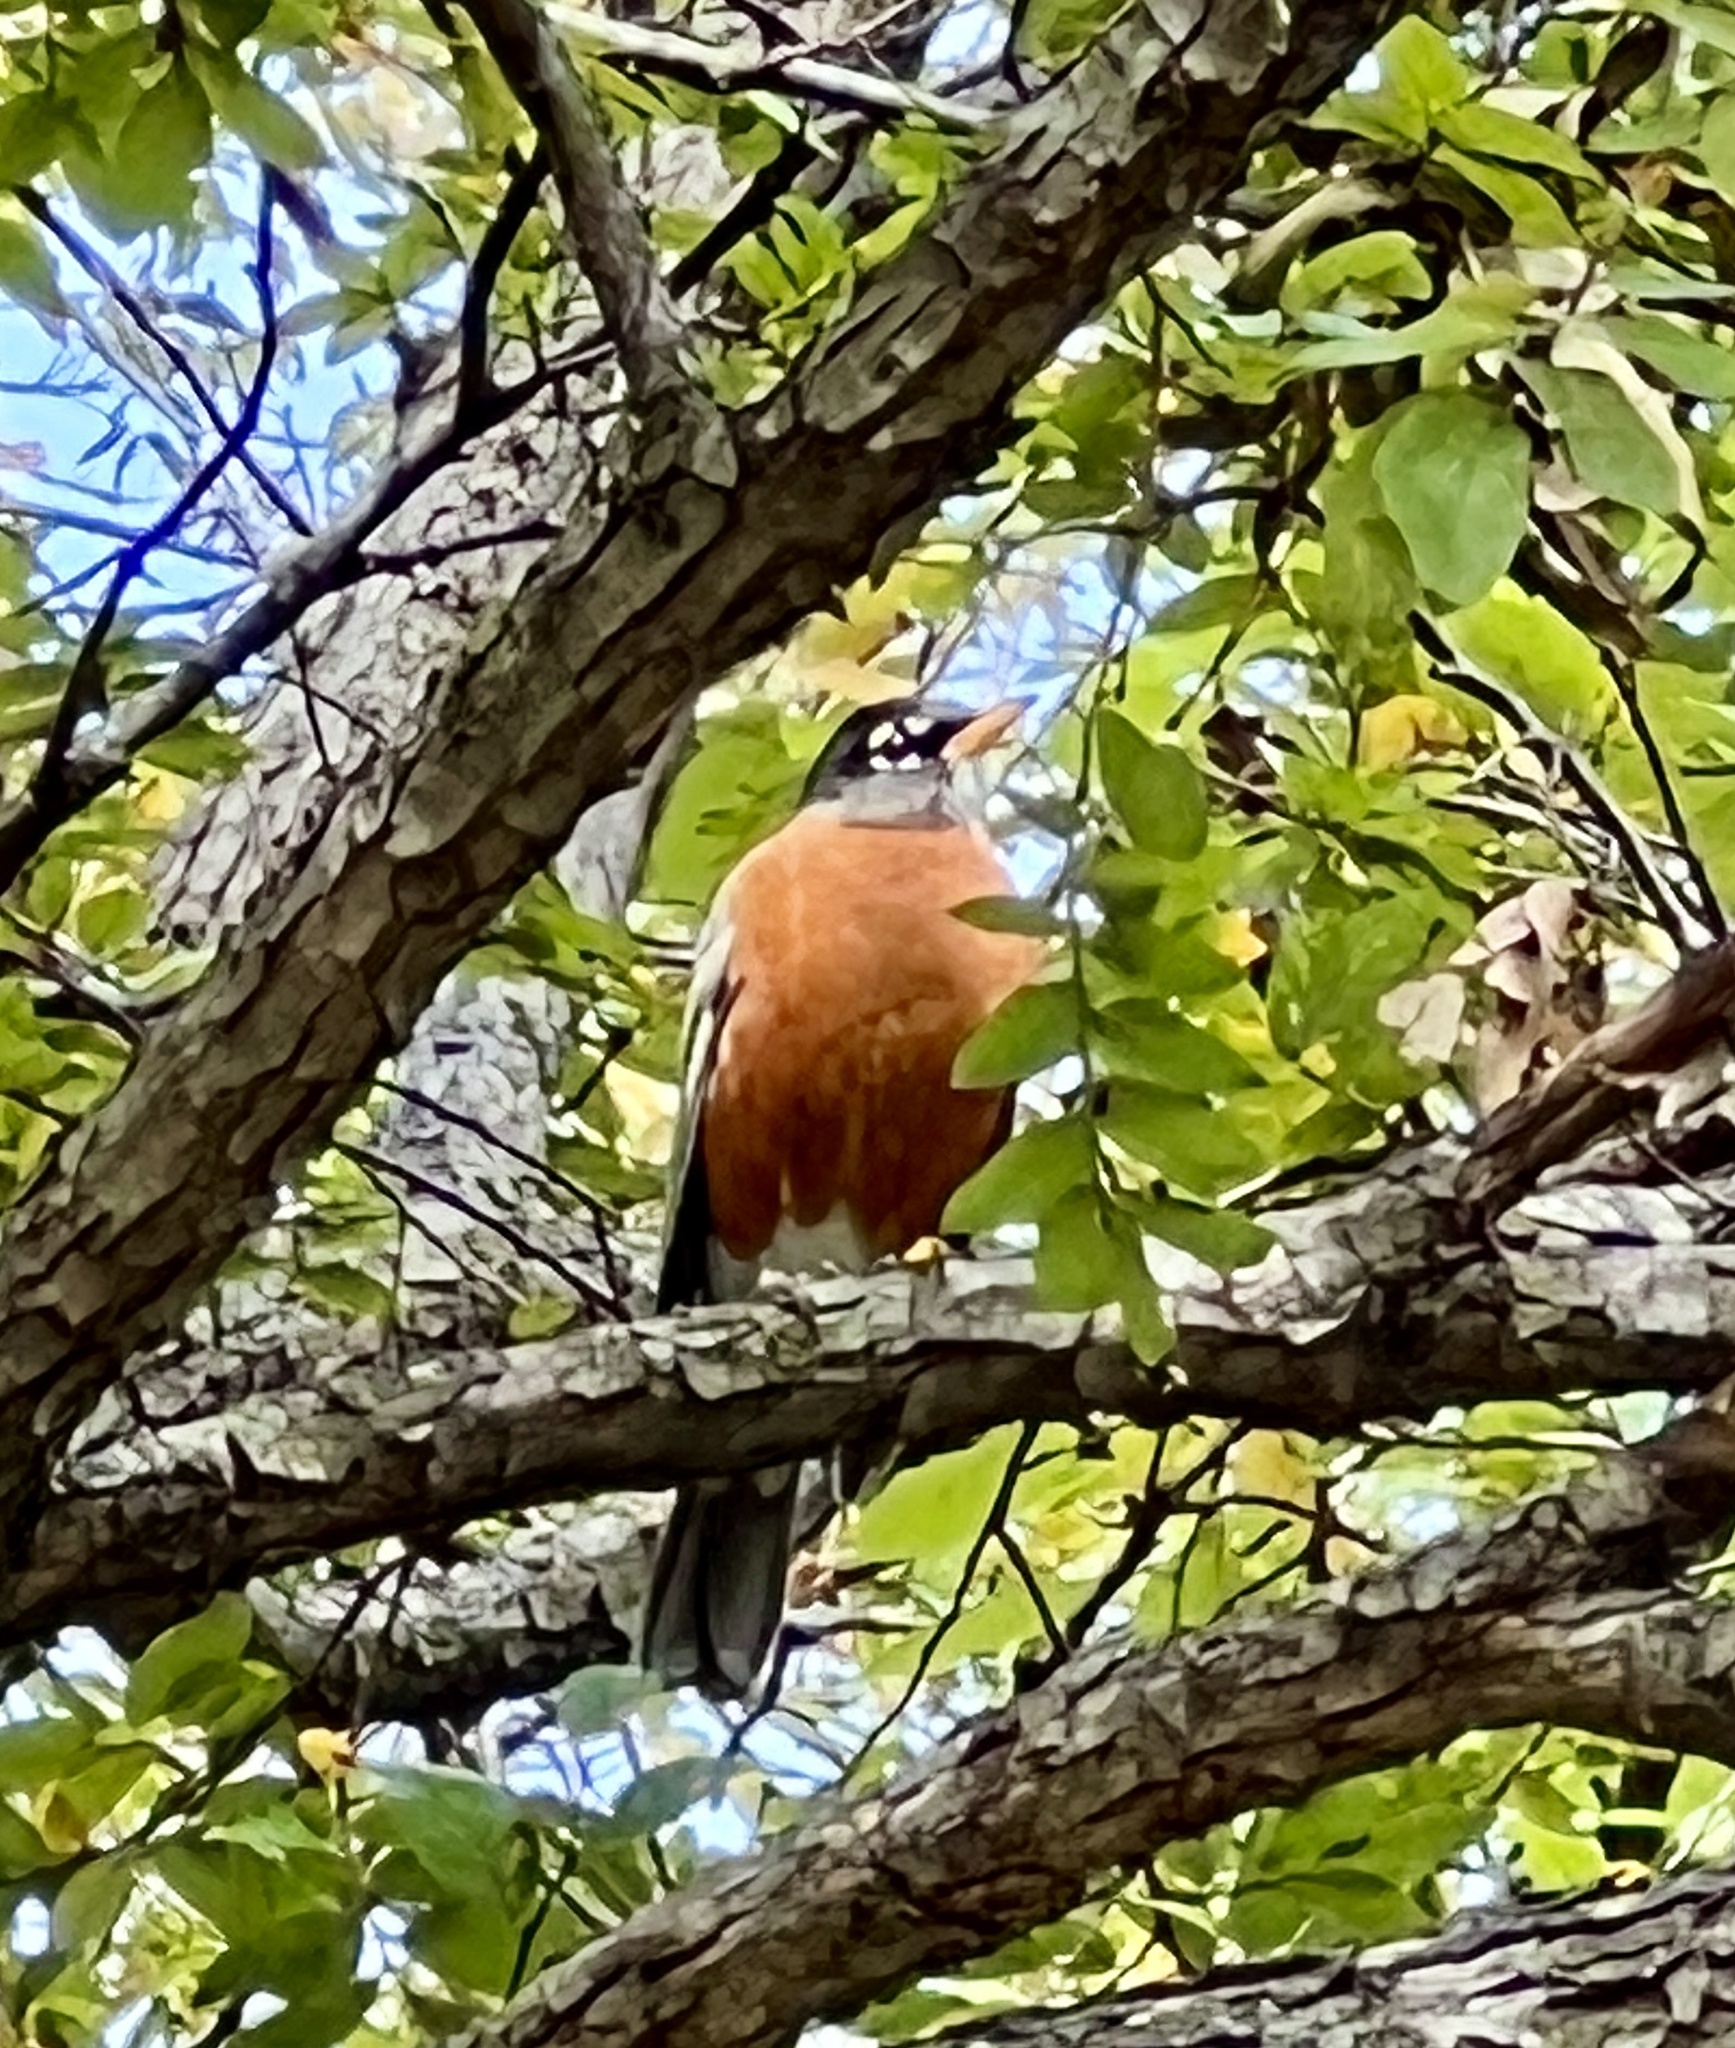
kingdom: Animalia
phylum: Chordata
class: Aves
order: Passeriformes
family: Turdidae
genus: Turdus
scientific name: Turdus migratorius
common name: American robin
